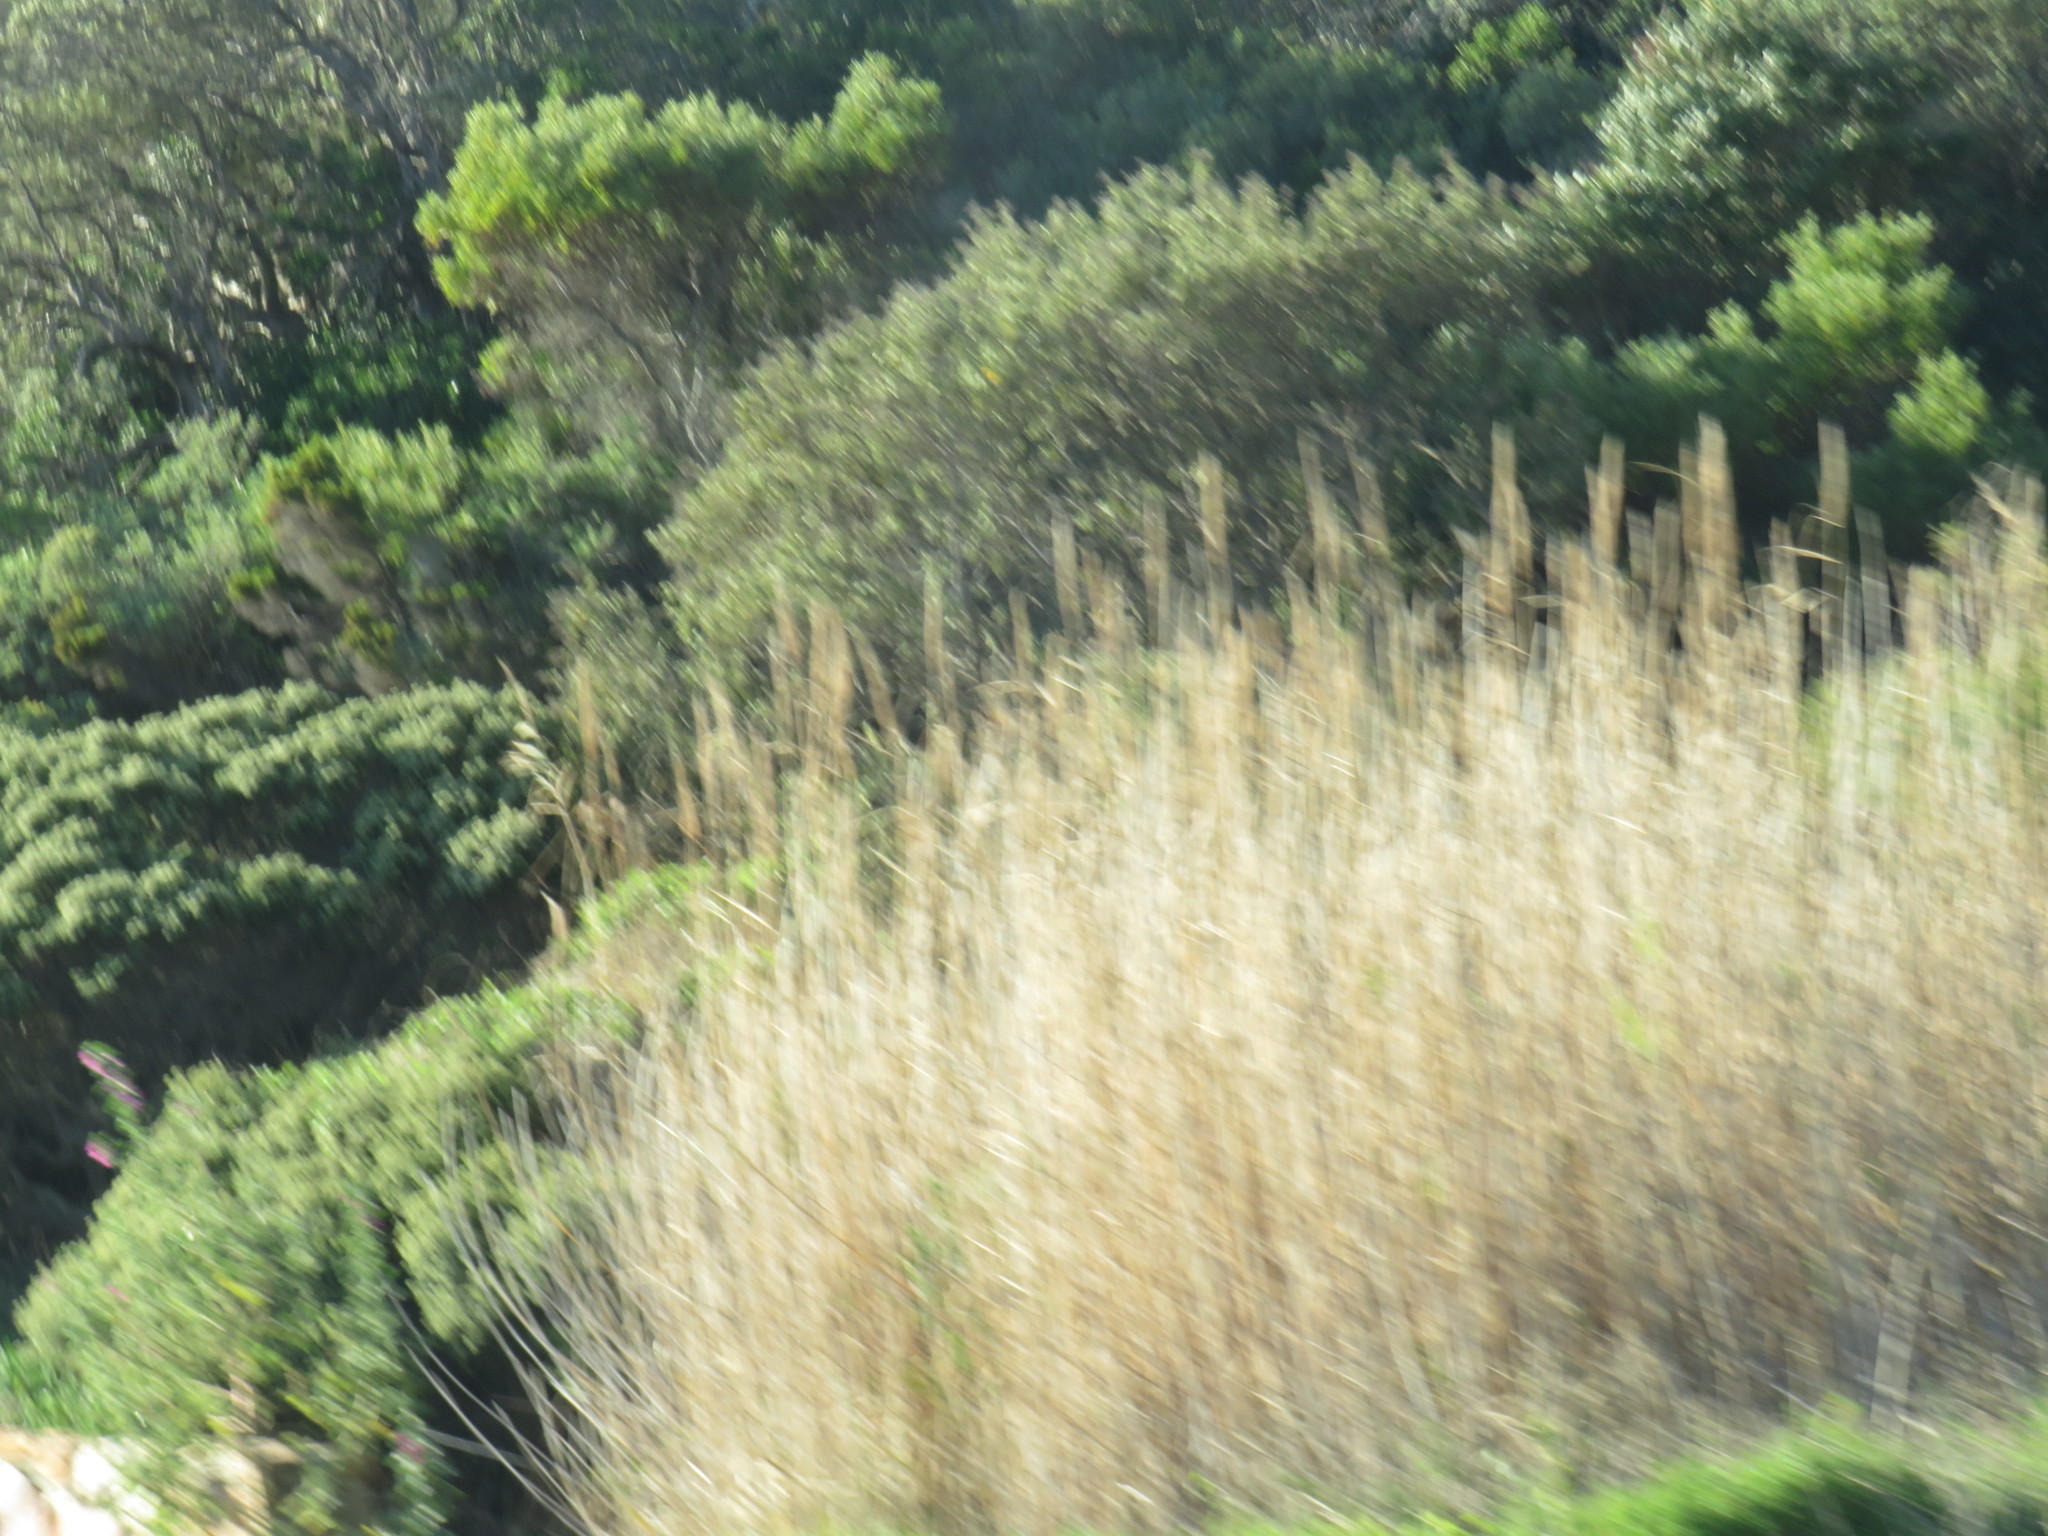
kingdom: Plantae
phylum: Tracheophyta
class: Liliopsida
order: Poales
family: Poaceae
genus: Phragmites
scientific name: Phragmites australis
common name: Common reed
